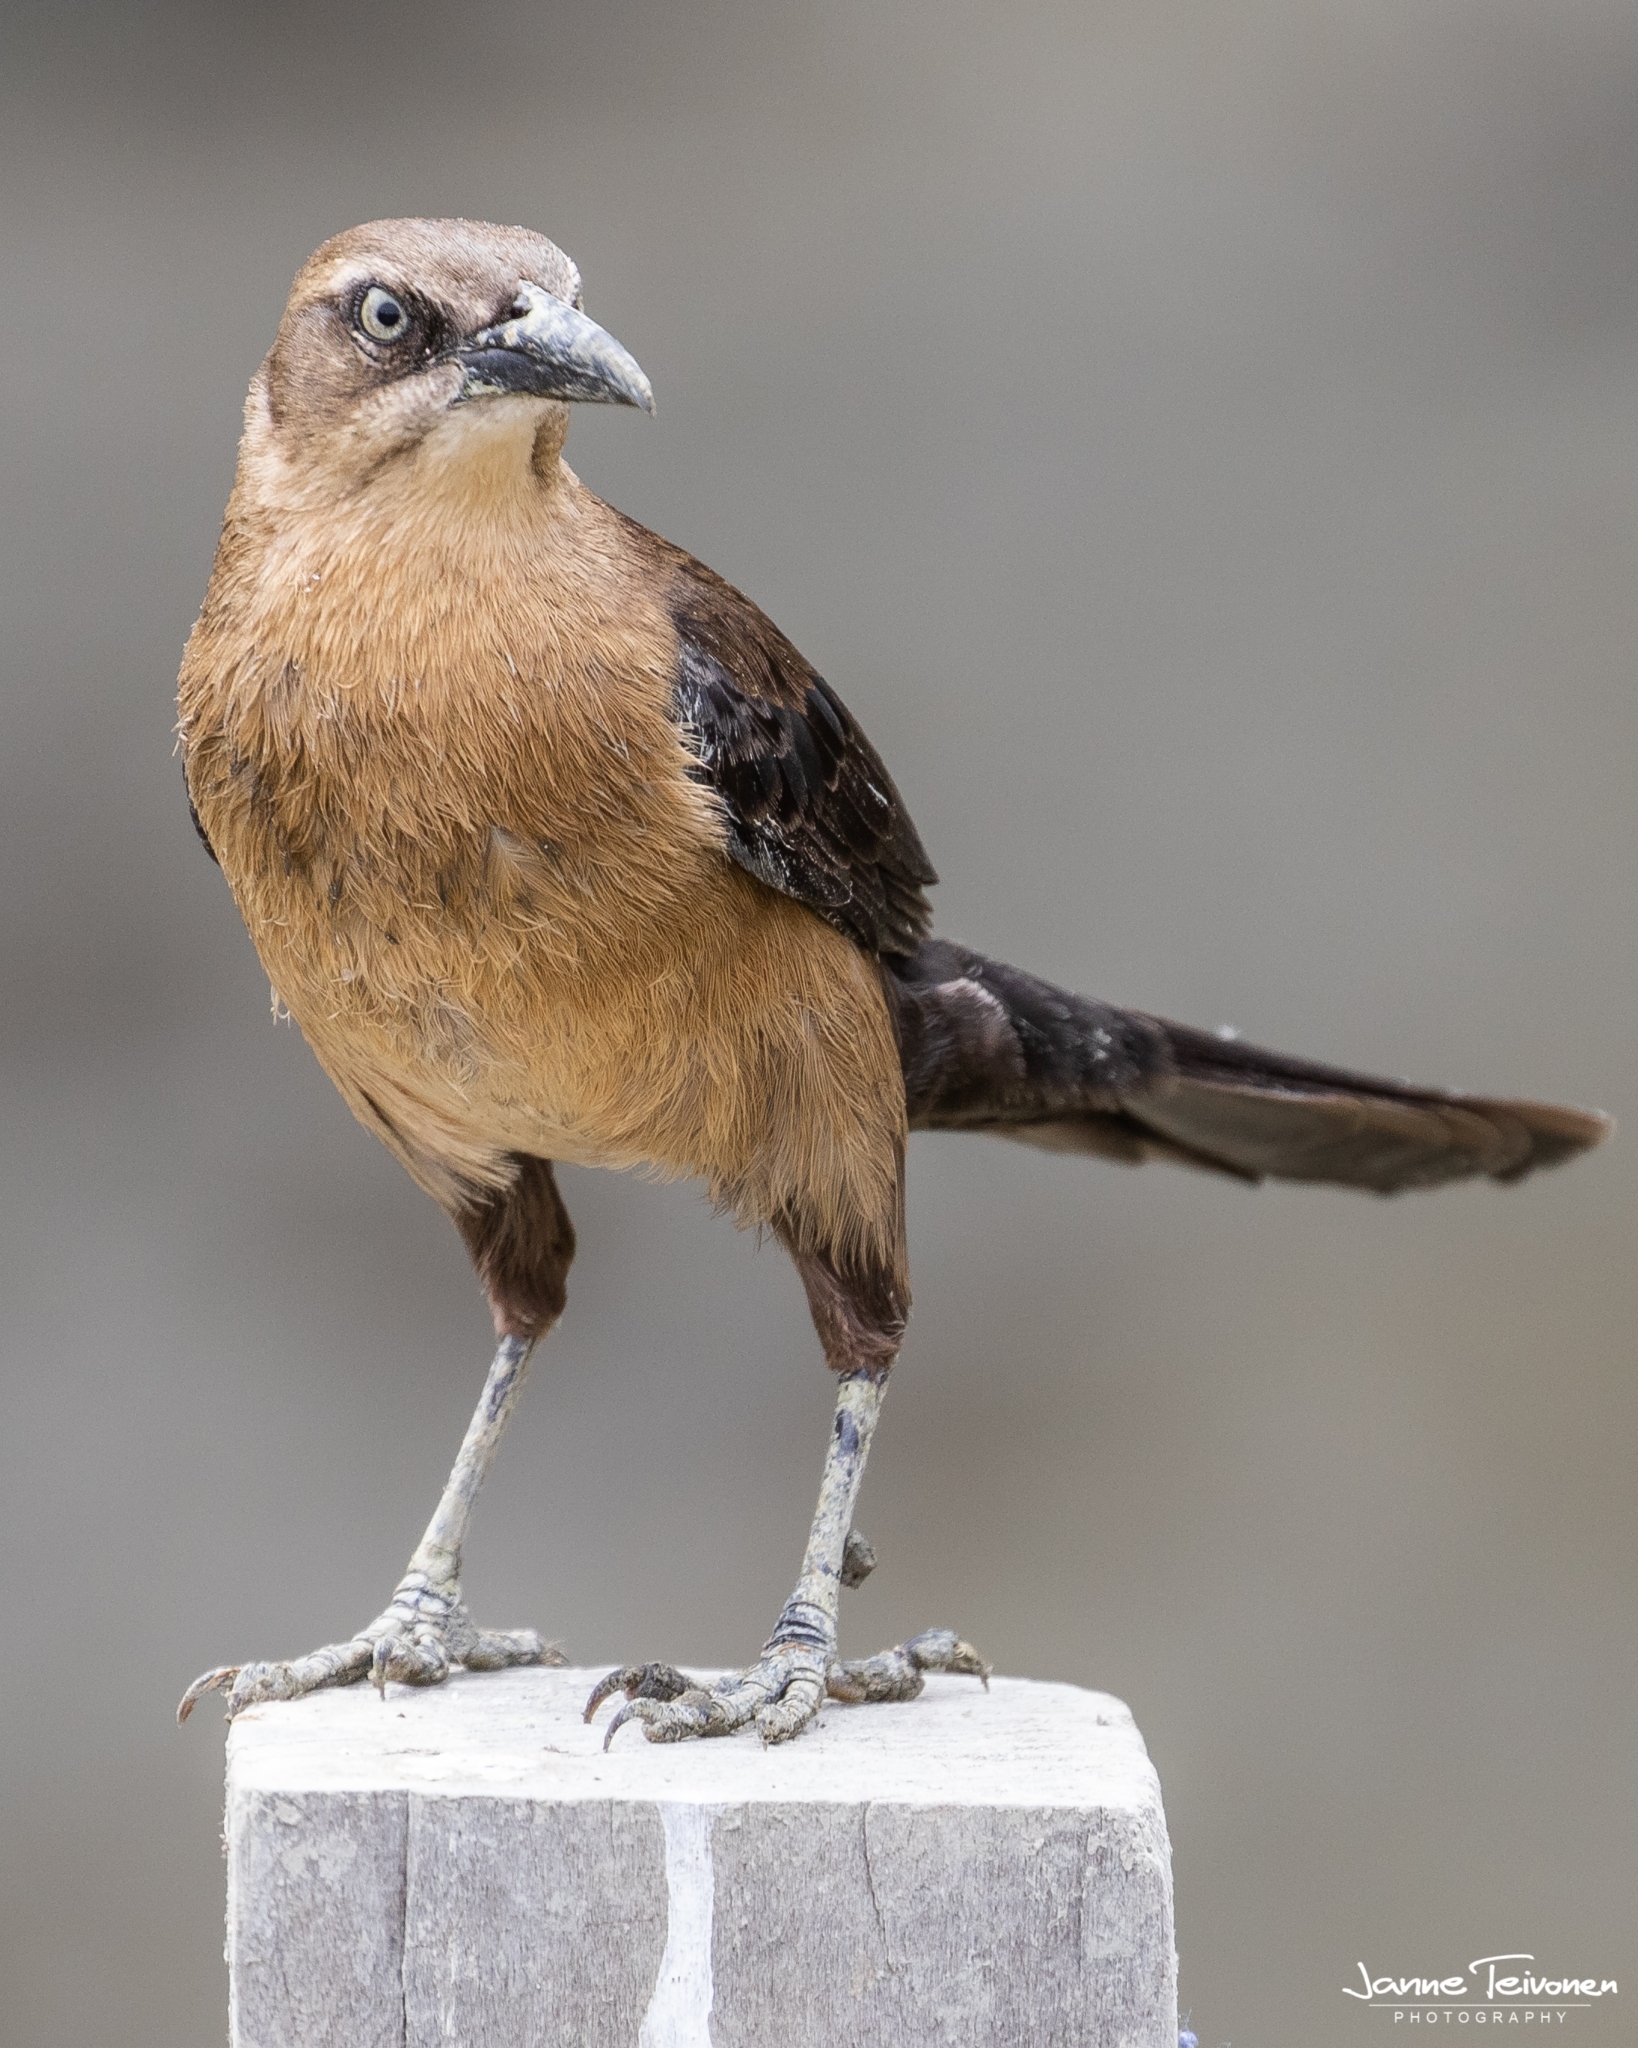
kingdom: Animalia
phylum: Chordata
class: Aves
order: Passeriformes
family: Icteridae
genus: Quiscalus
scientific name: Quiscalus mexicanus
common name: Great-tailed grackle
